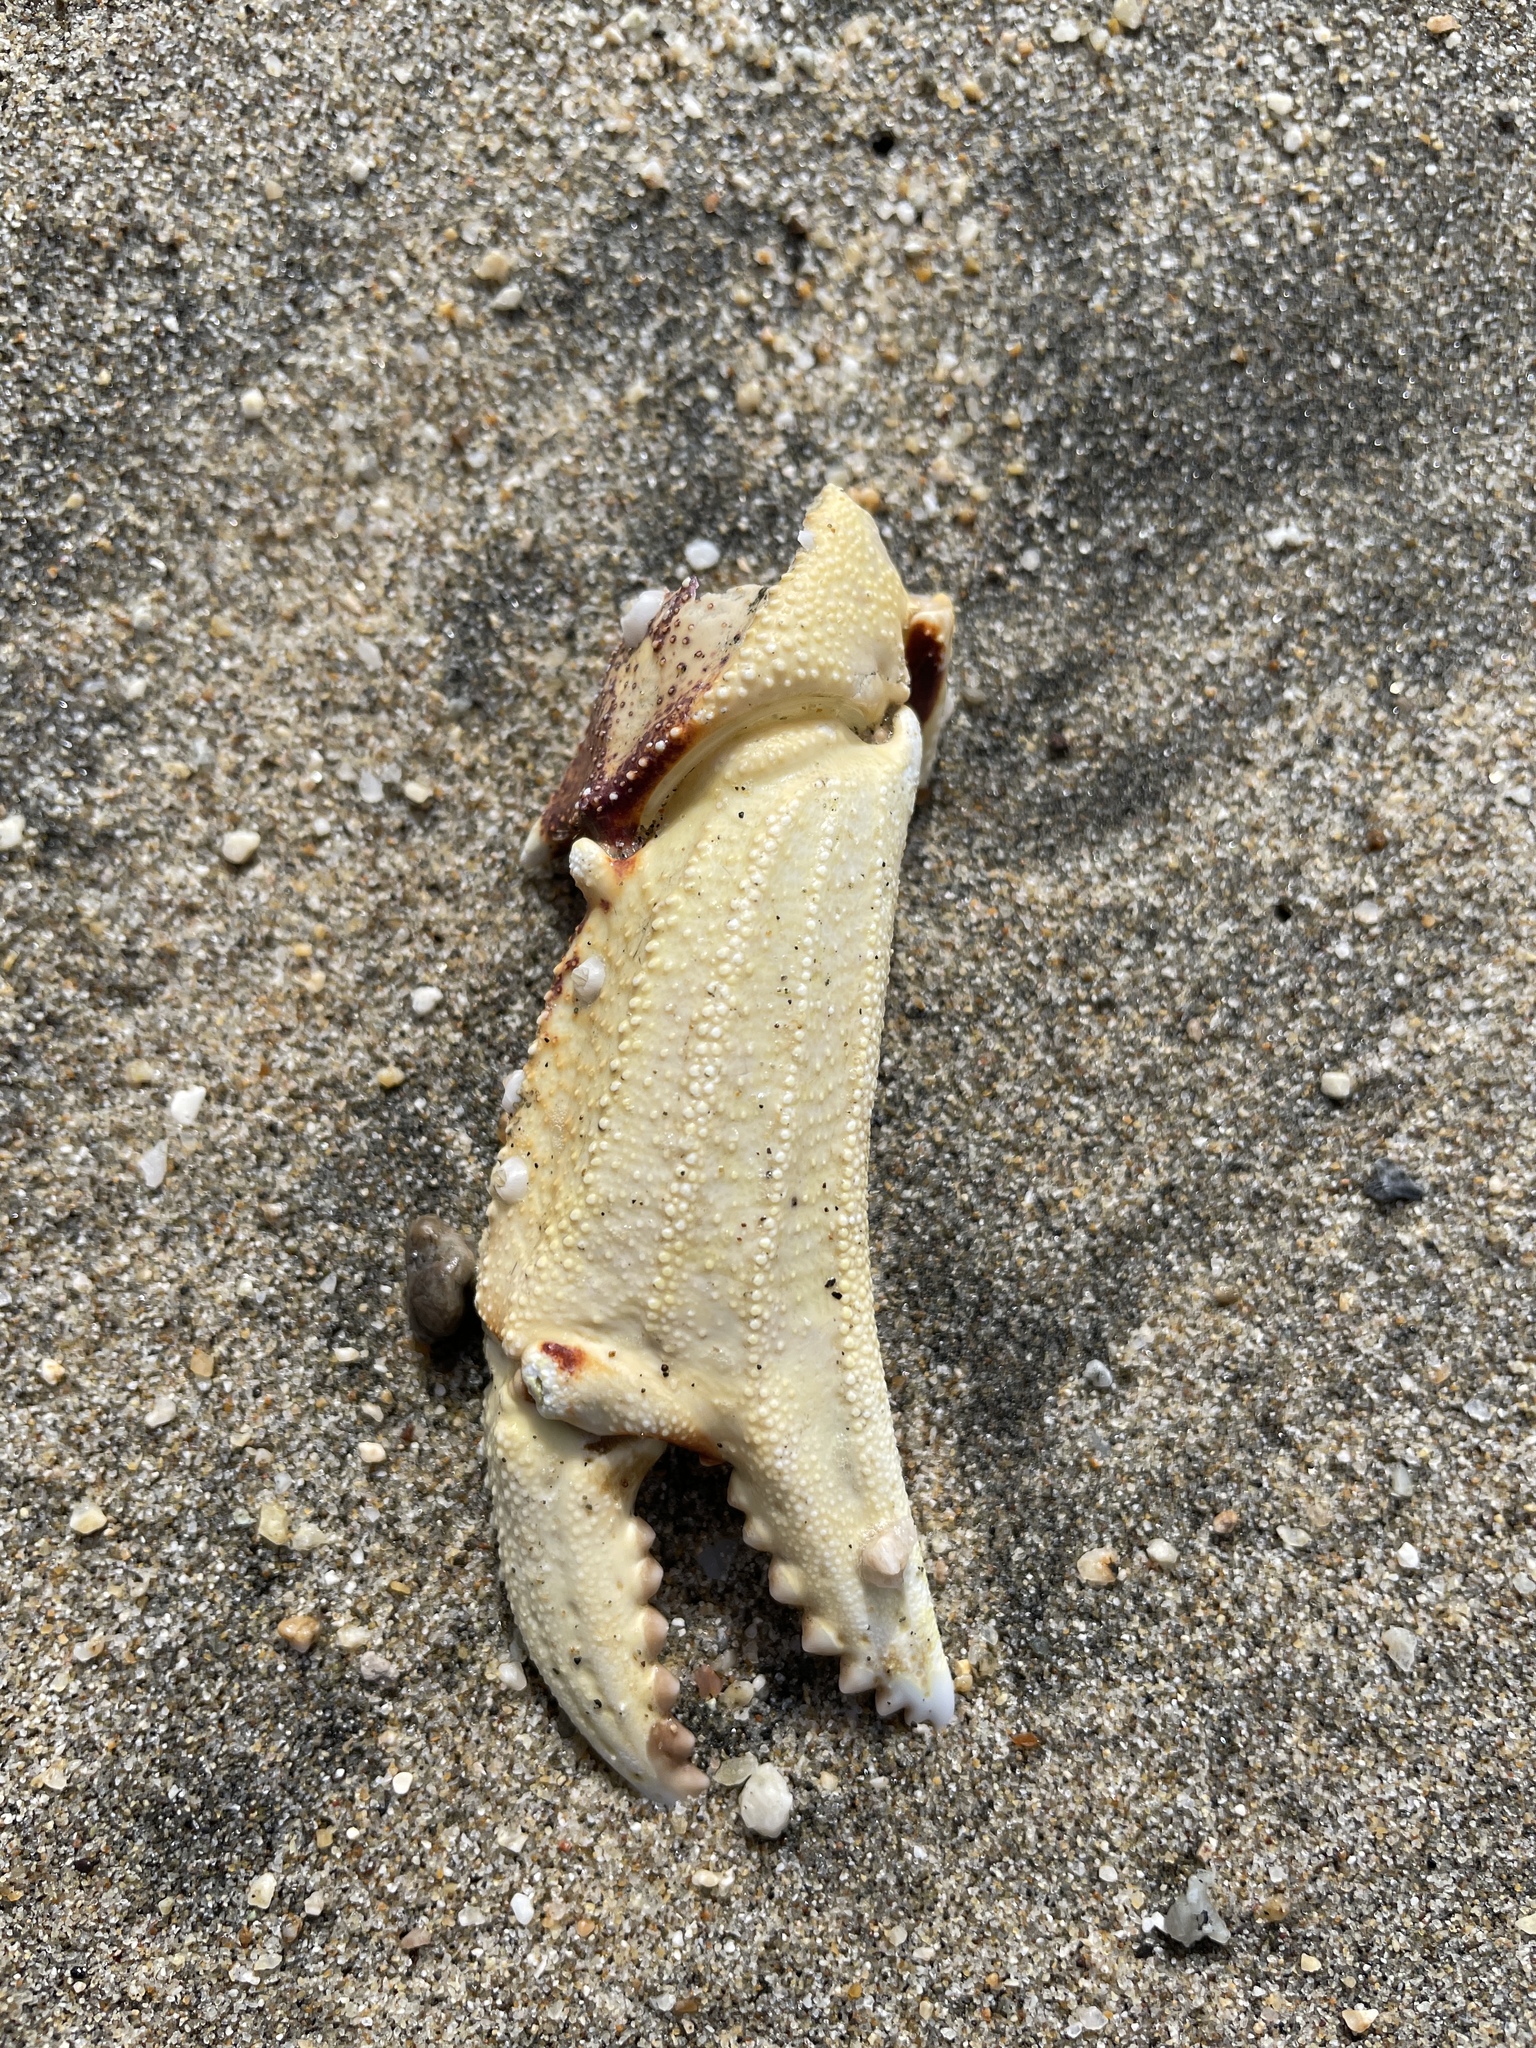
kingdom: Animalia
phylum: Arthropoda
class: Malacostraca
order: Decapoda
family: Cancridae
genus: Metacarcinus
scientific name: Metacarcinus magister
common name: Californian crab
